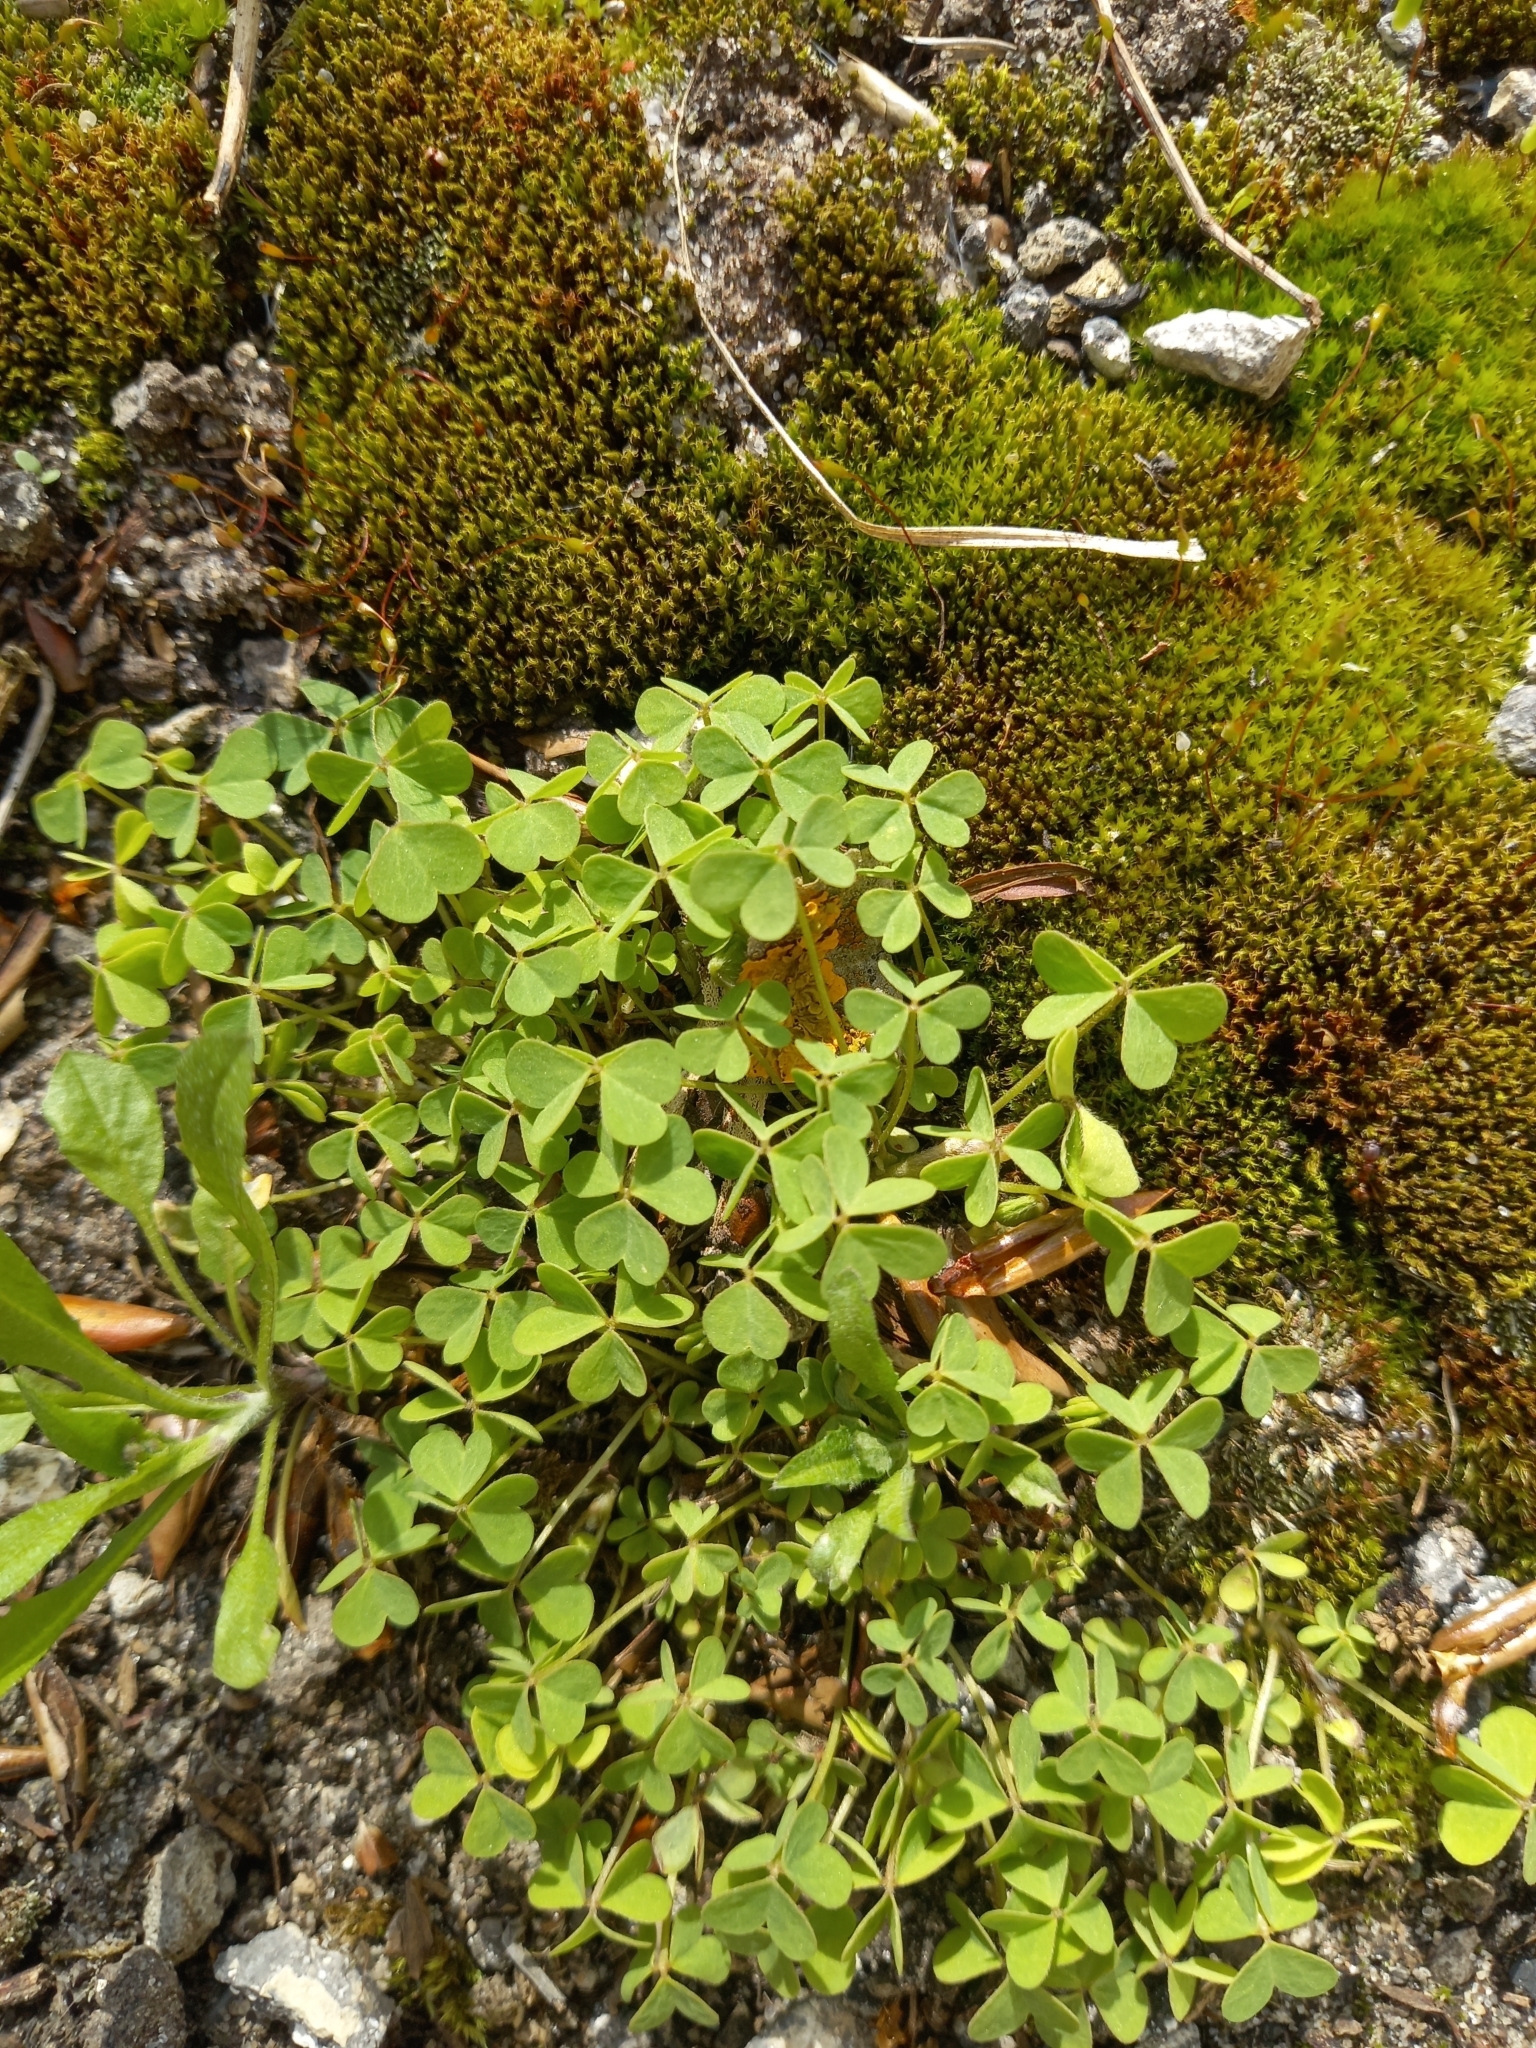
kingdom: Plantae
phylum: Tracheophyta
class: Magnoliopsida
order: Oxalidales
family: Oxalidaceae
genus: Oxalis
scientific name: Oxalis stricta
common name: Upright yellow-sorrel
